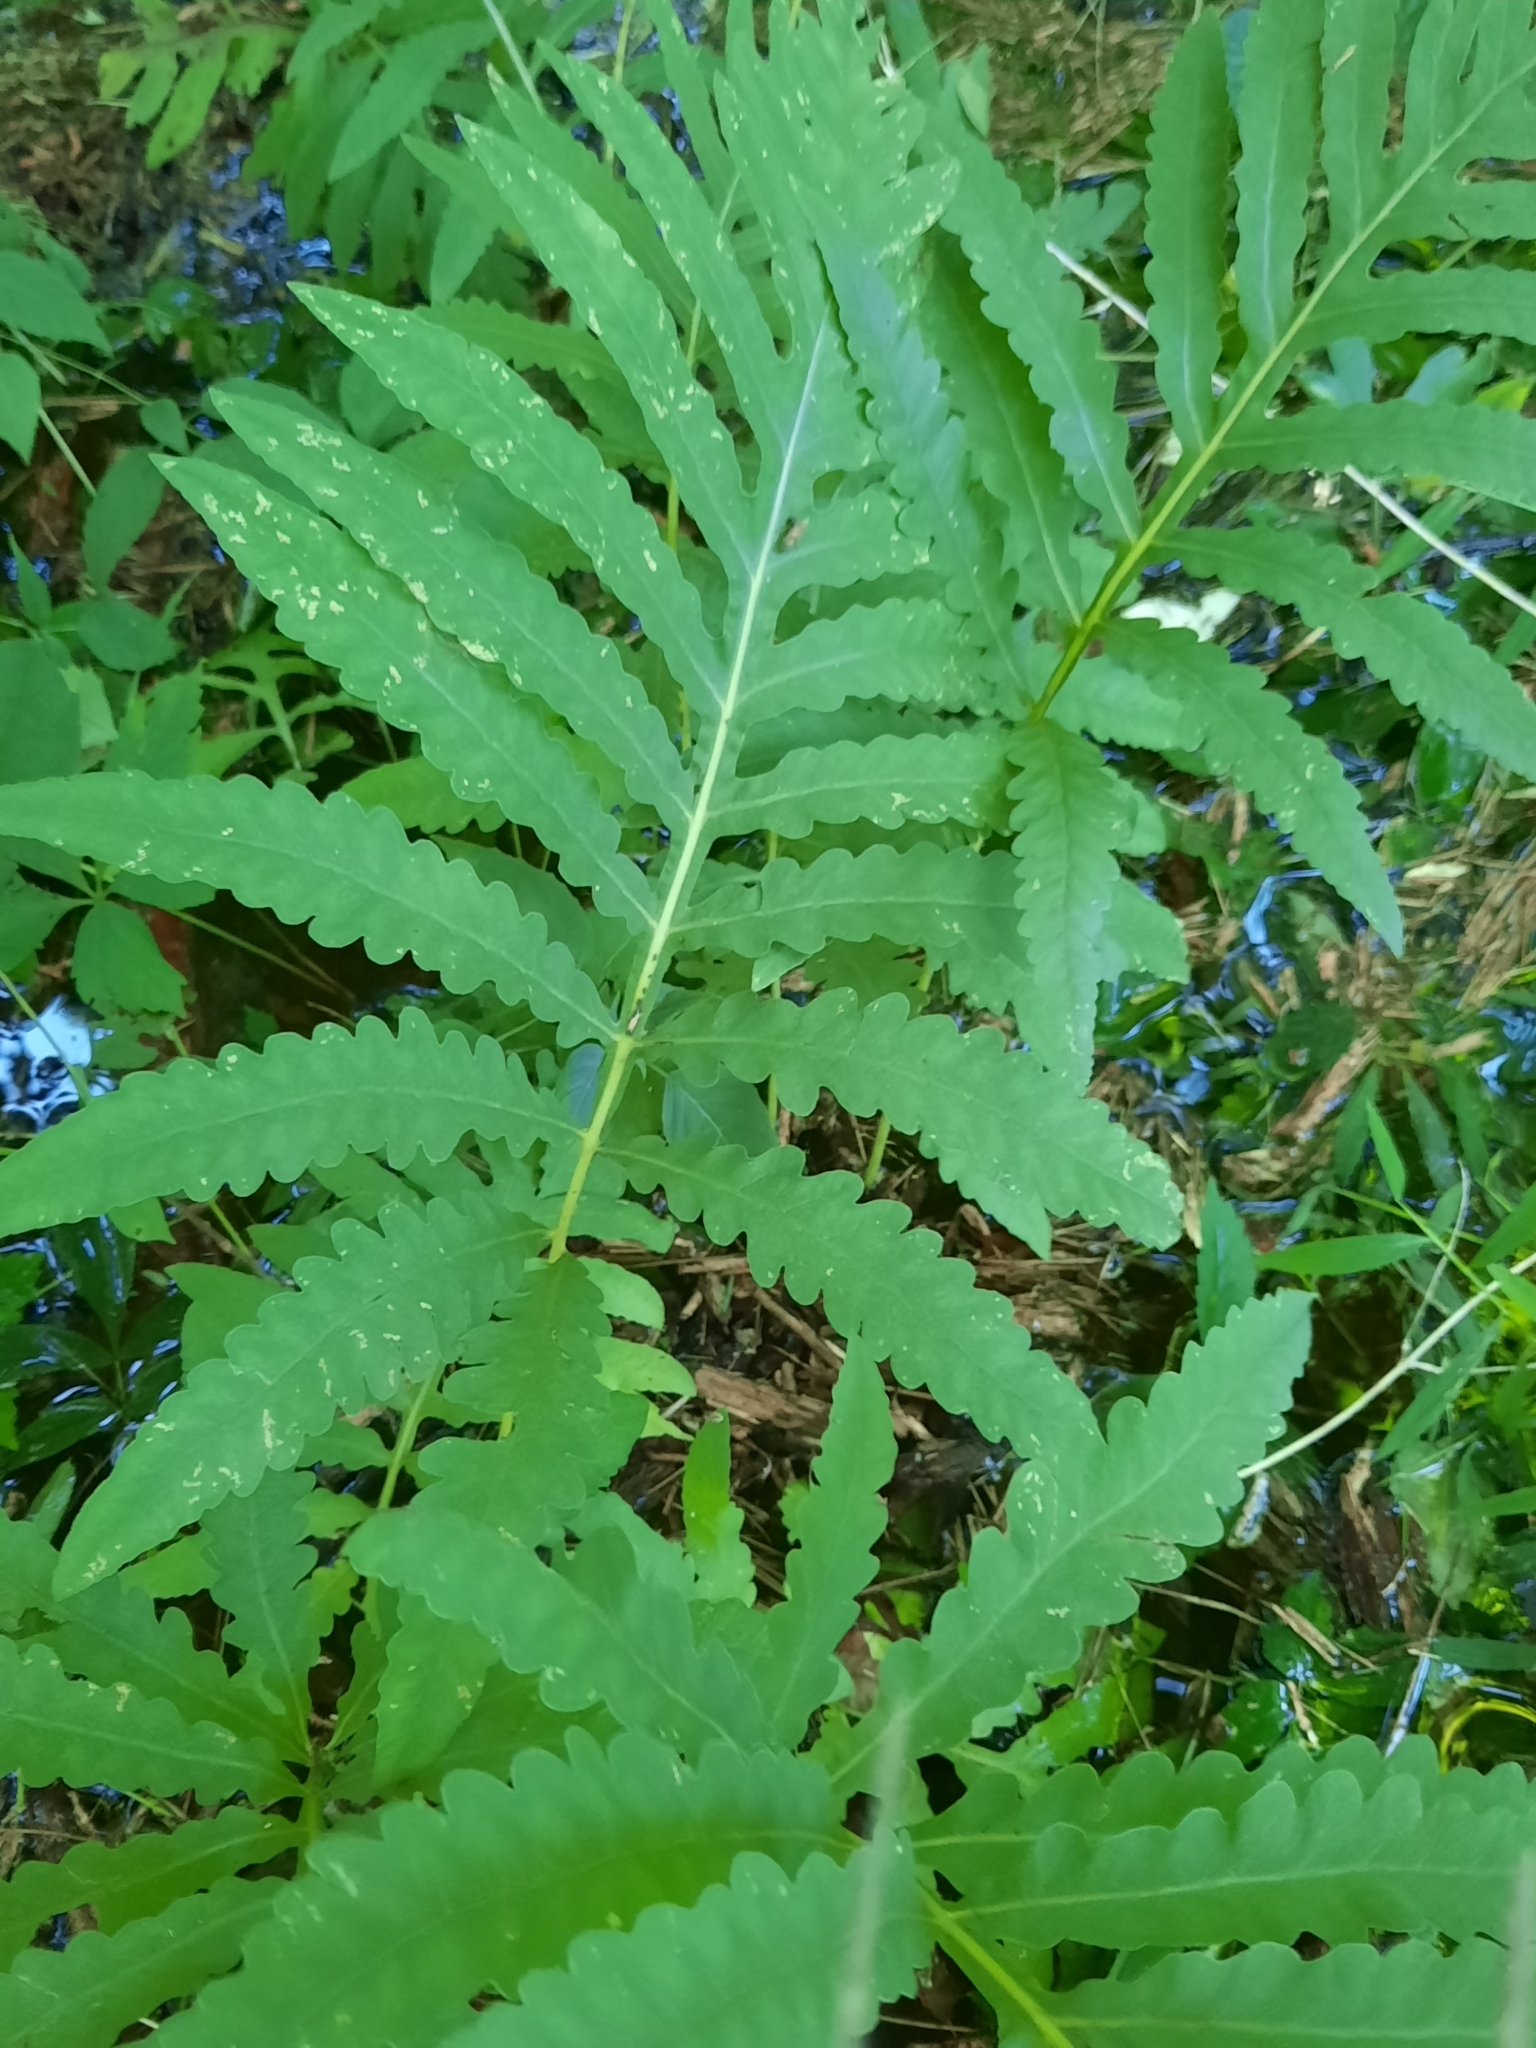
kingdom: Plantae
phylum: Tracheophyta
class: Polypodiopsida
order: Polypodiales
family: Onocleaceae
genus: Onoclea
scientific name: Onoclea sensibilis
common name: Sensitive fern
